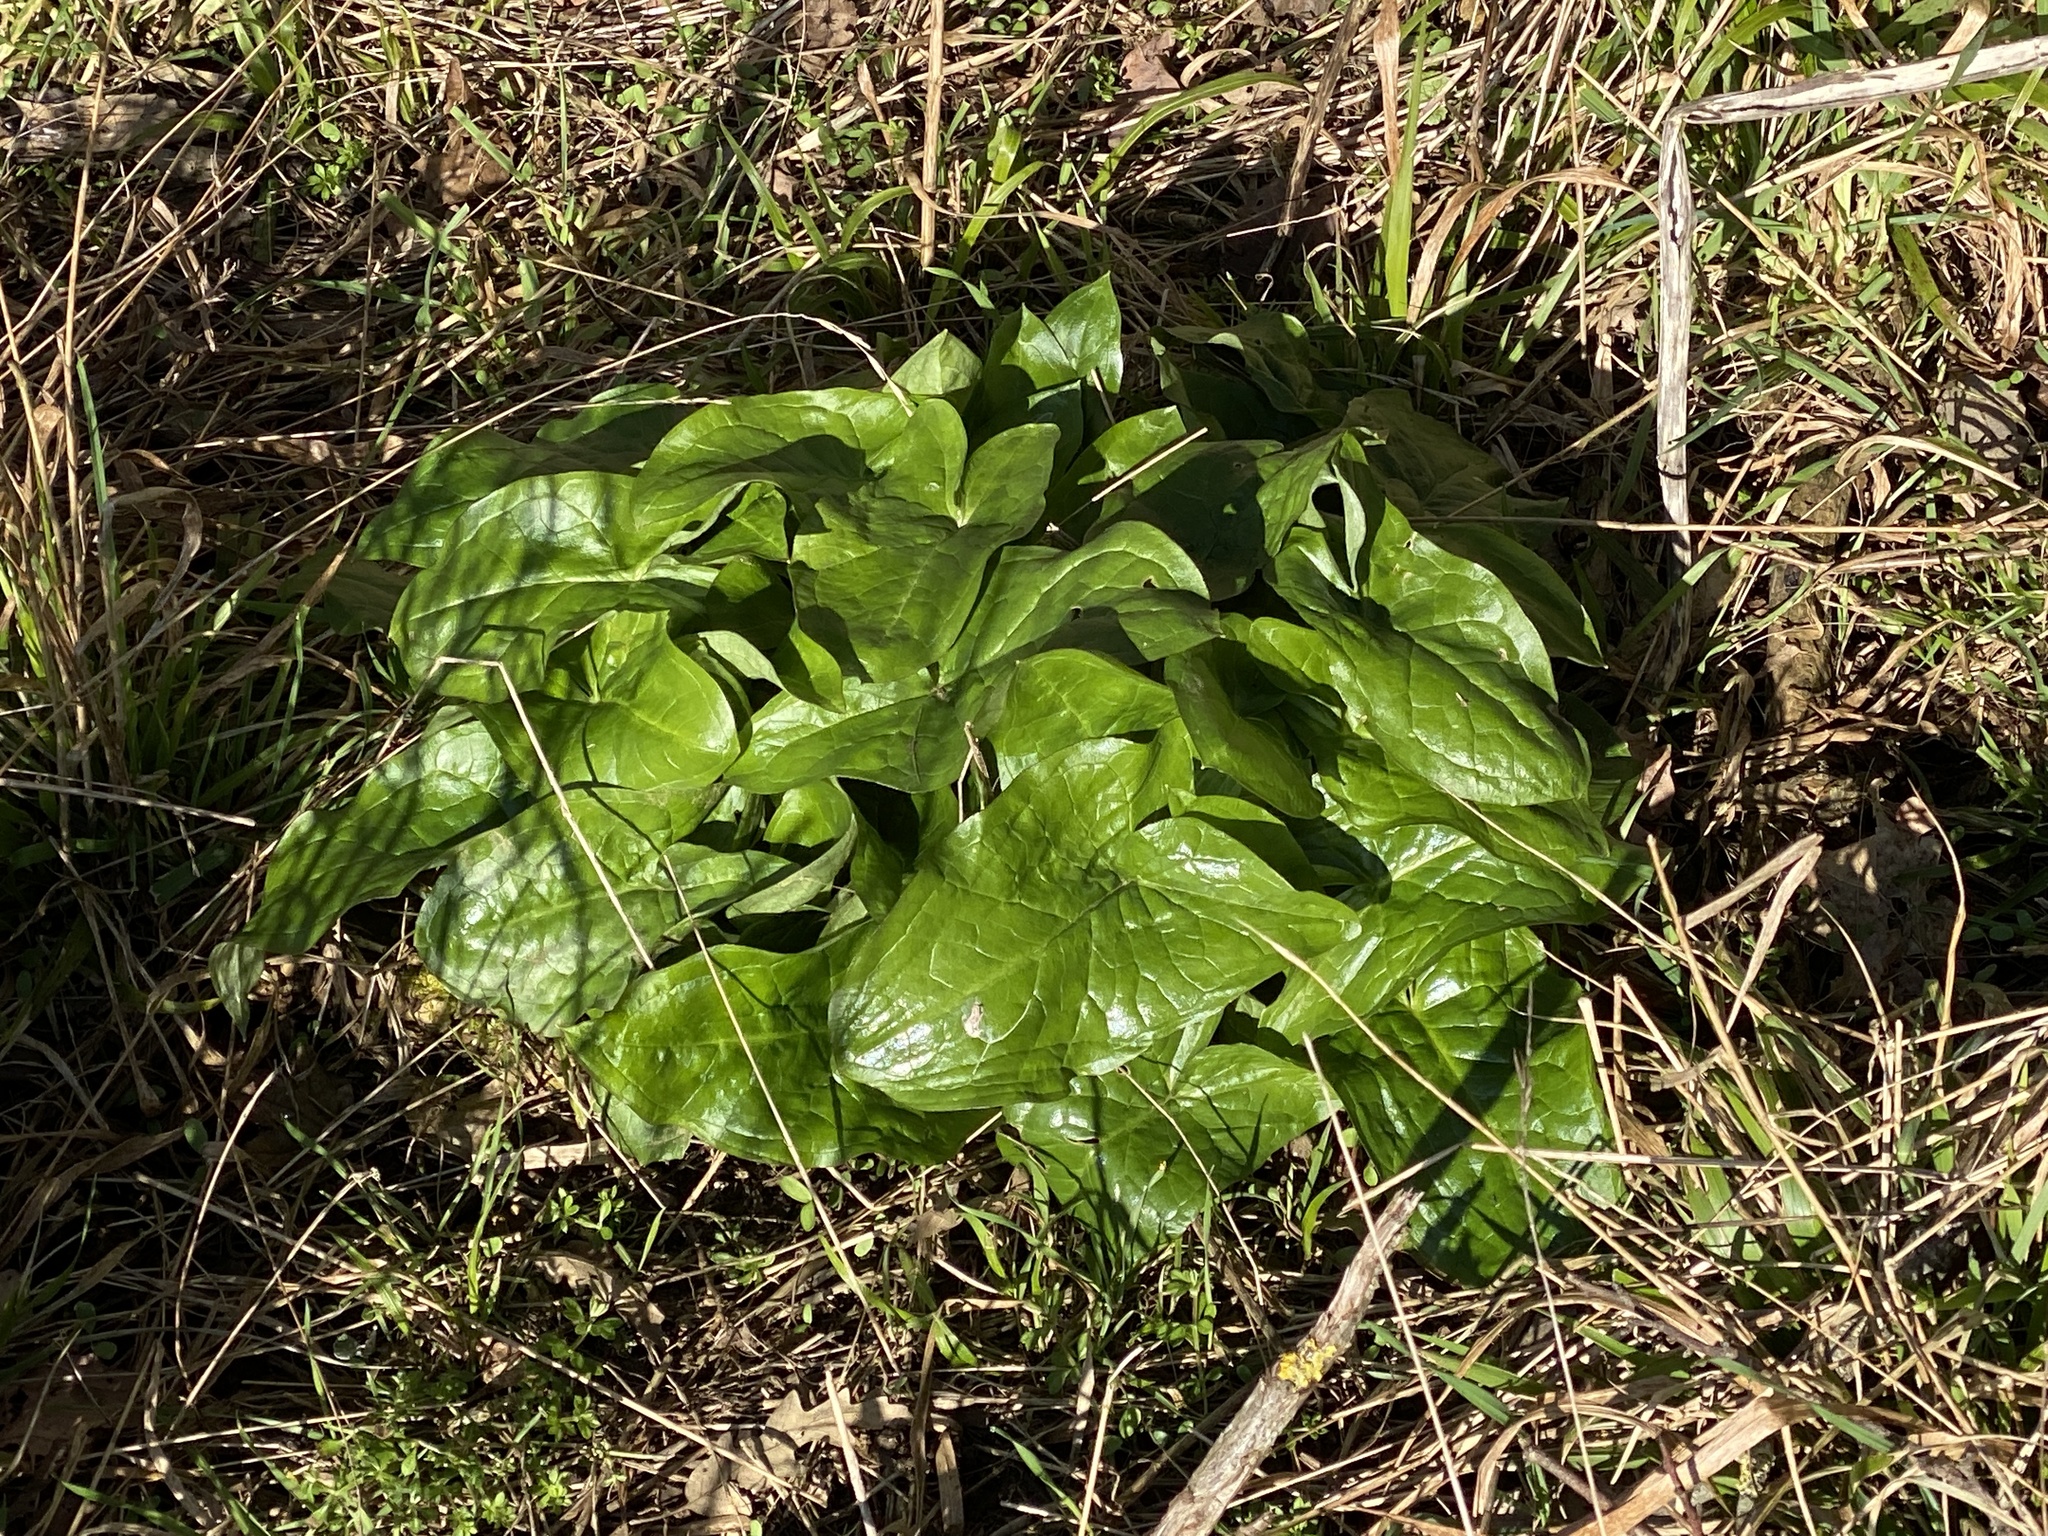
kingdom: Plantae
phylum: Tracheophyta
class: Liliopsida
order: Alismatales
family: Araceae
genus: Arum
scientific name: Arum maculatum
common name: Lords-and-ladies
